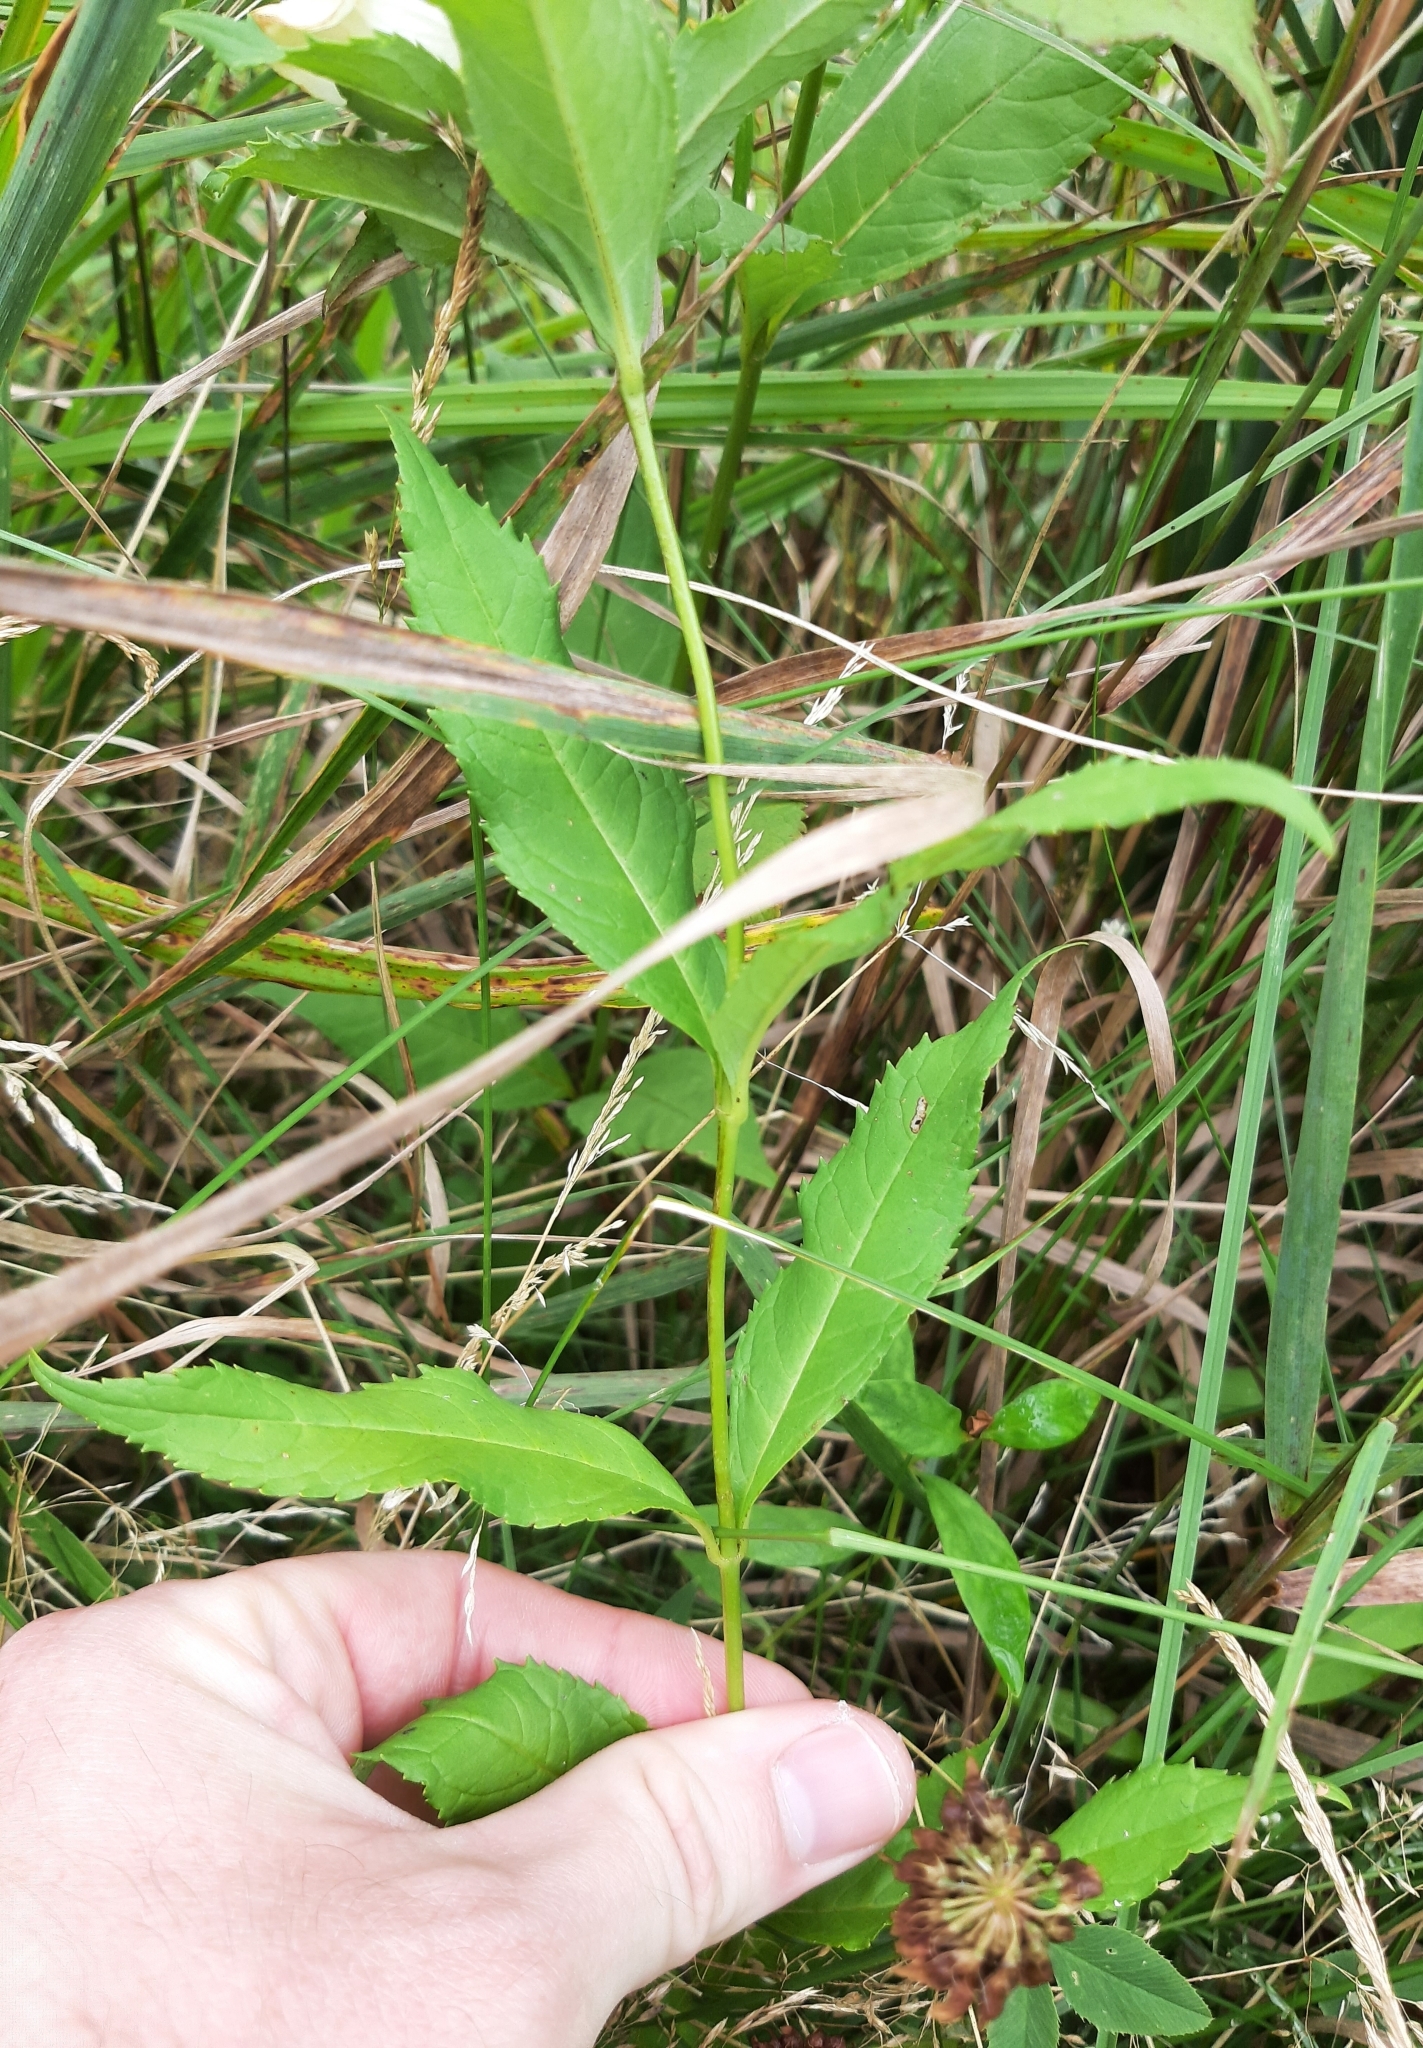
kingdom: Plantae
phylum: Tracheophyta
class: Magnoliopsida
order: Lamiales
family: Plantaginaceae
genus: Chelone
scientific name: Chelone glabra
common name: Snakehead
